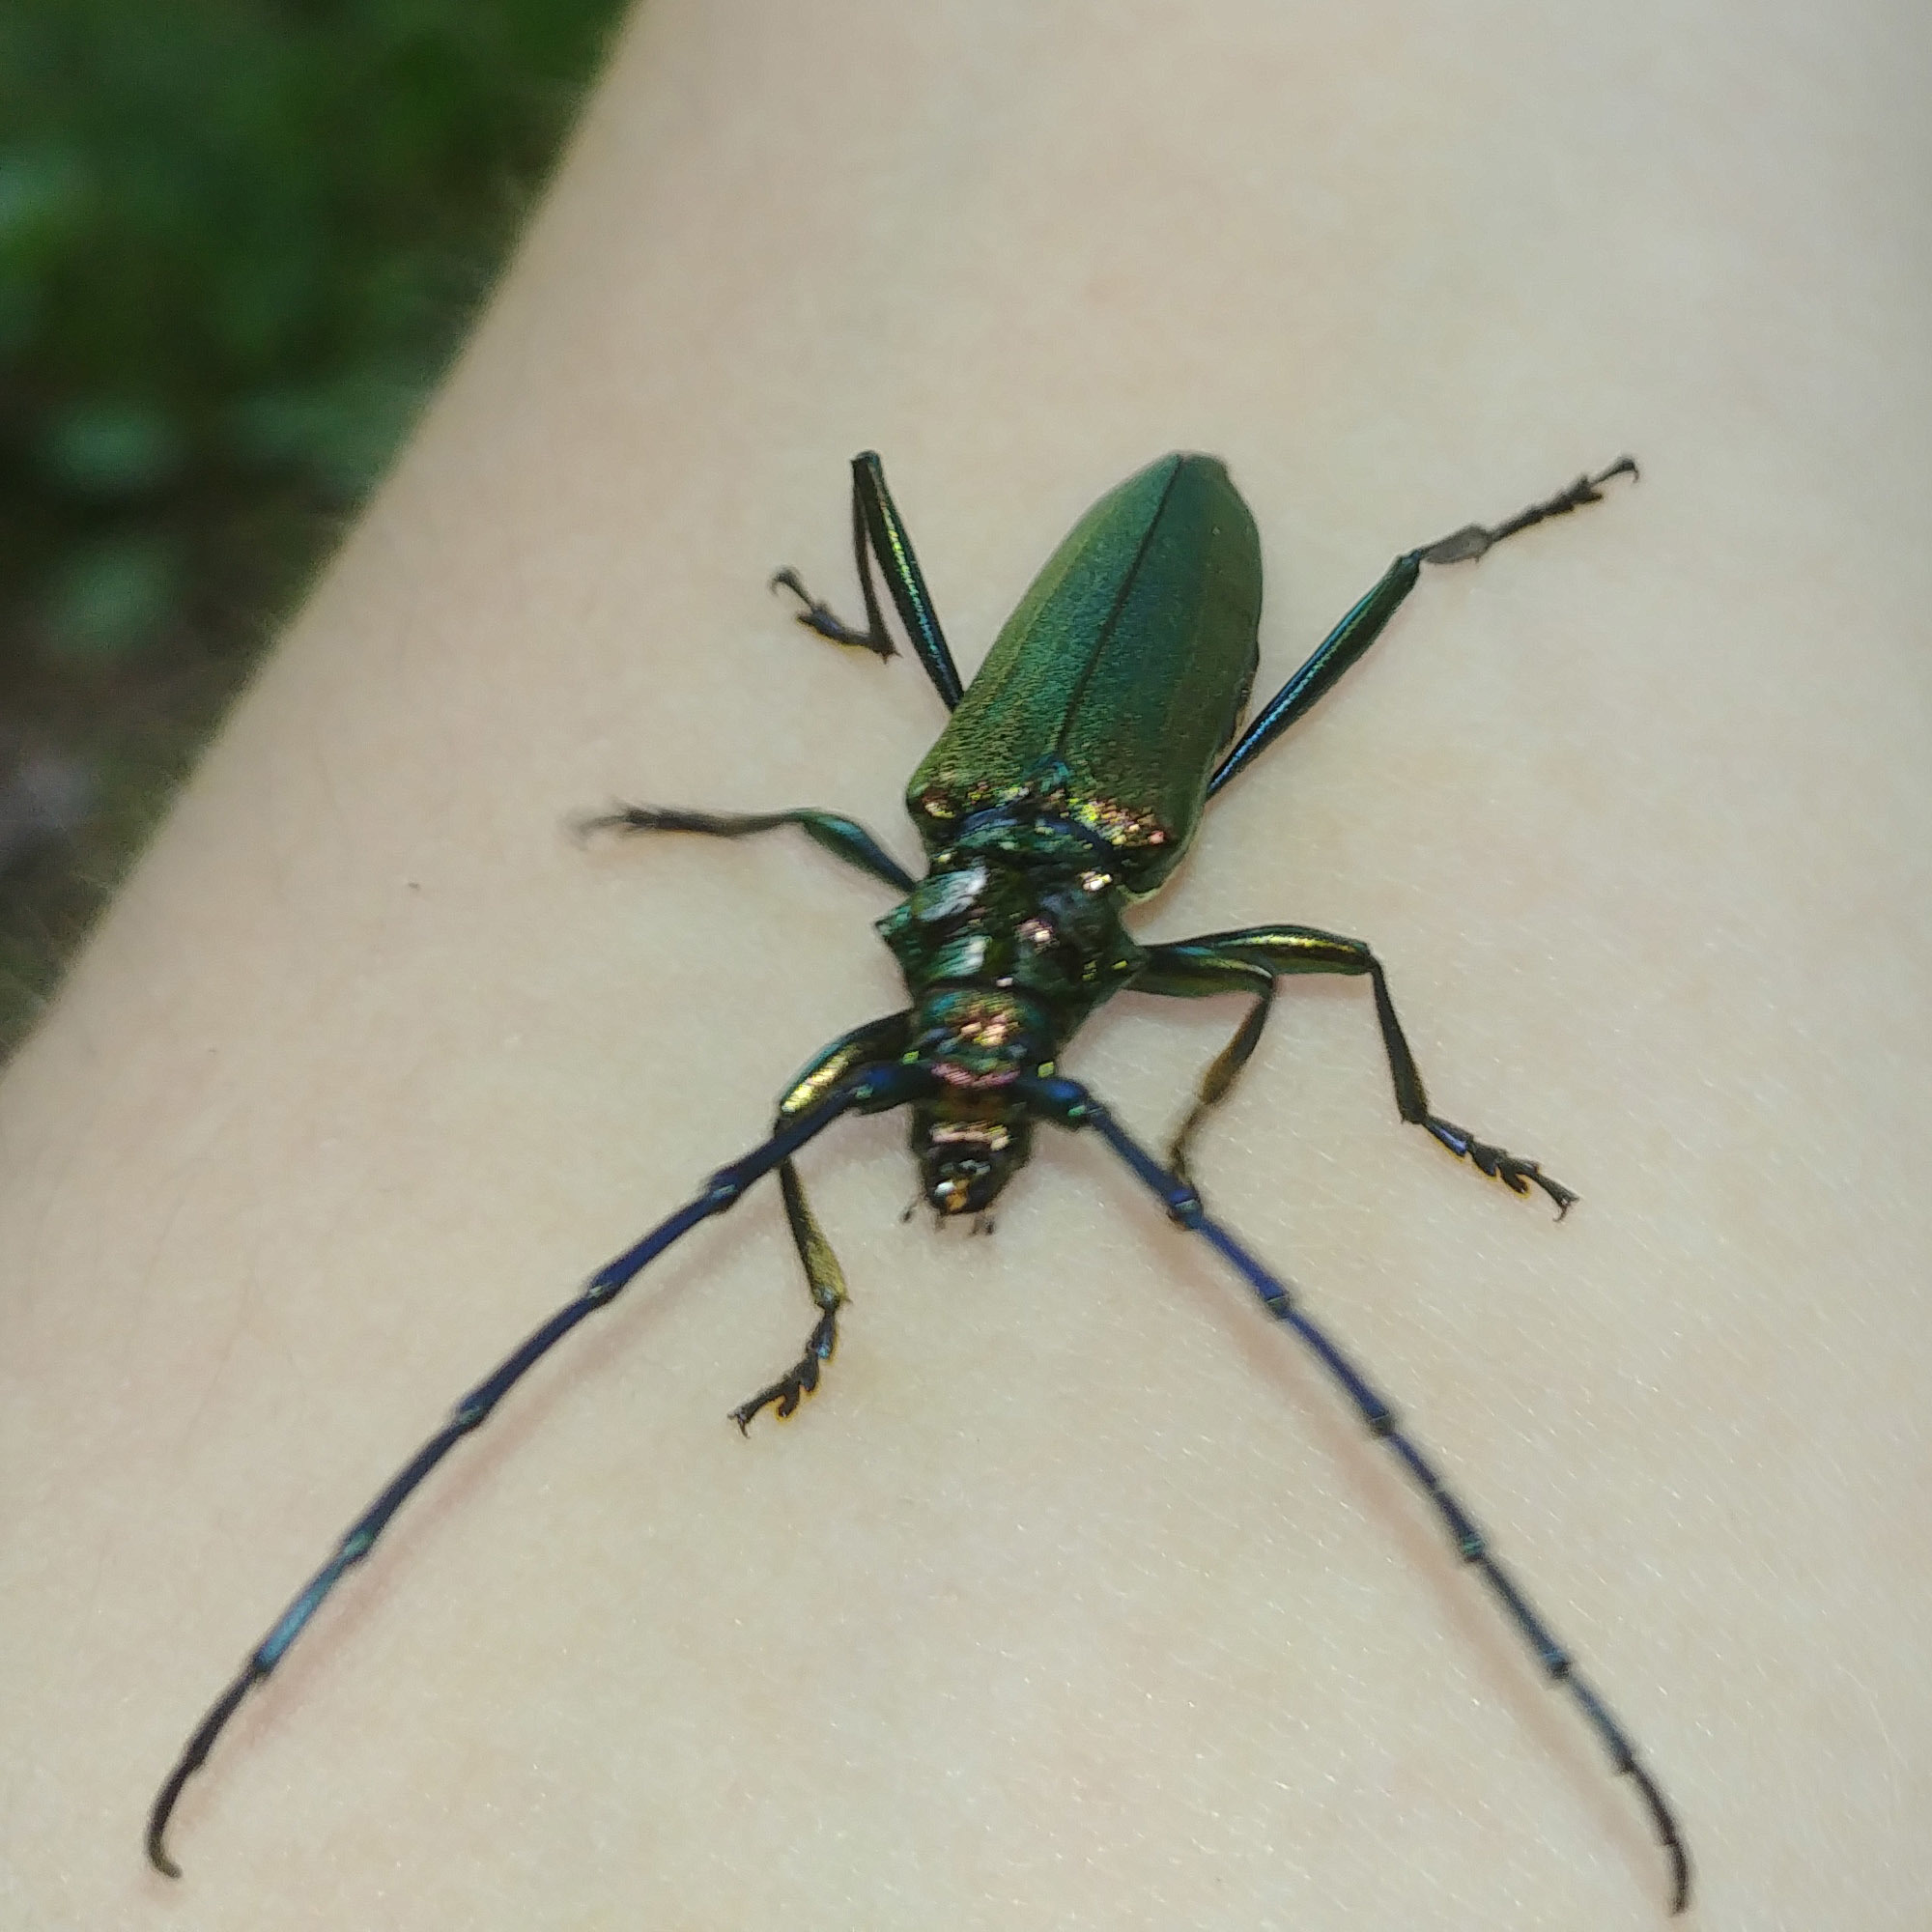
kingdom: Animalia
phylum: Arthropoda
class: Insecta
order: Coleoptera
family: Cerambycidae
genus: Aromia
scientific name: Aromia moschata
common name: Musk beetle
